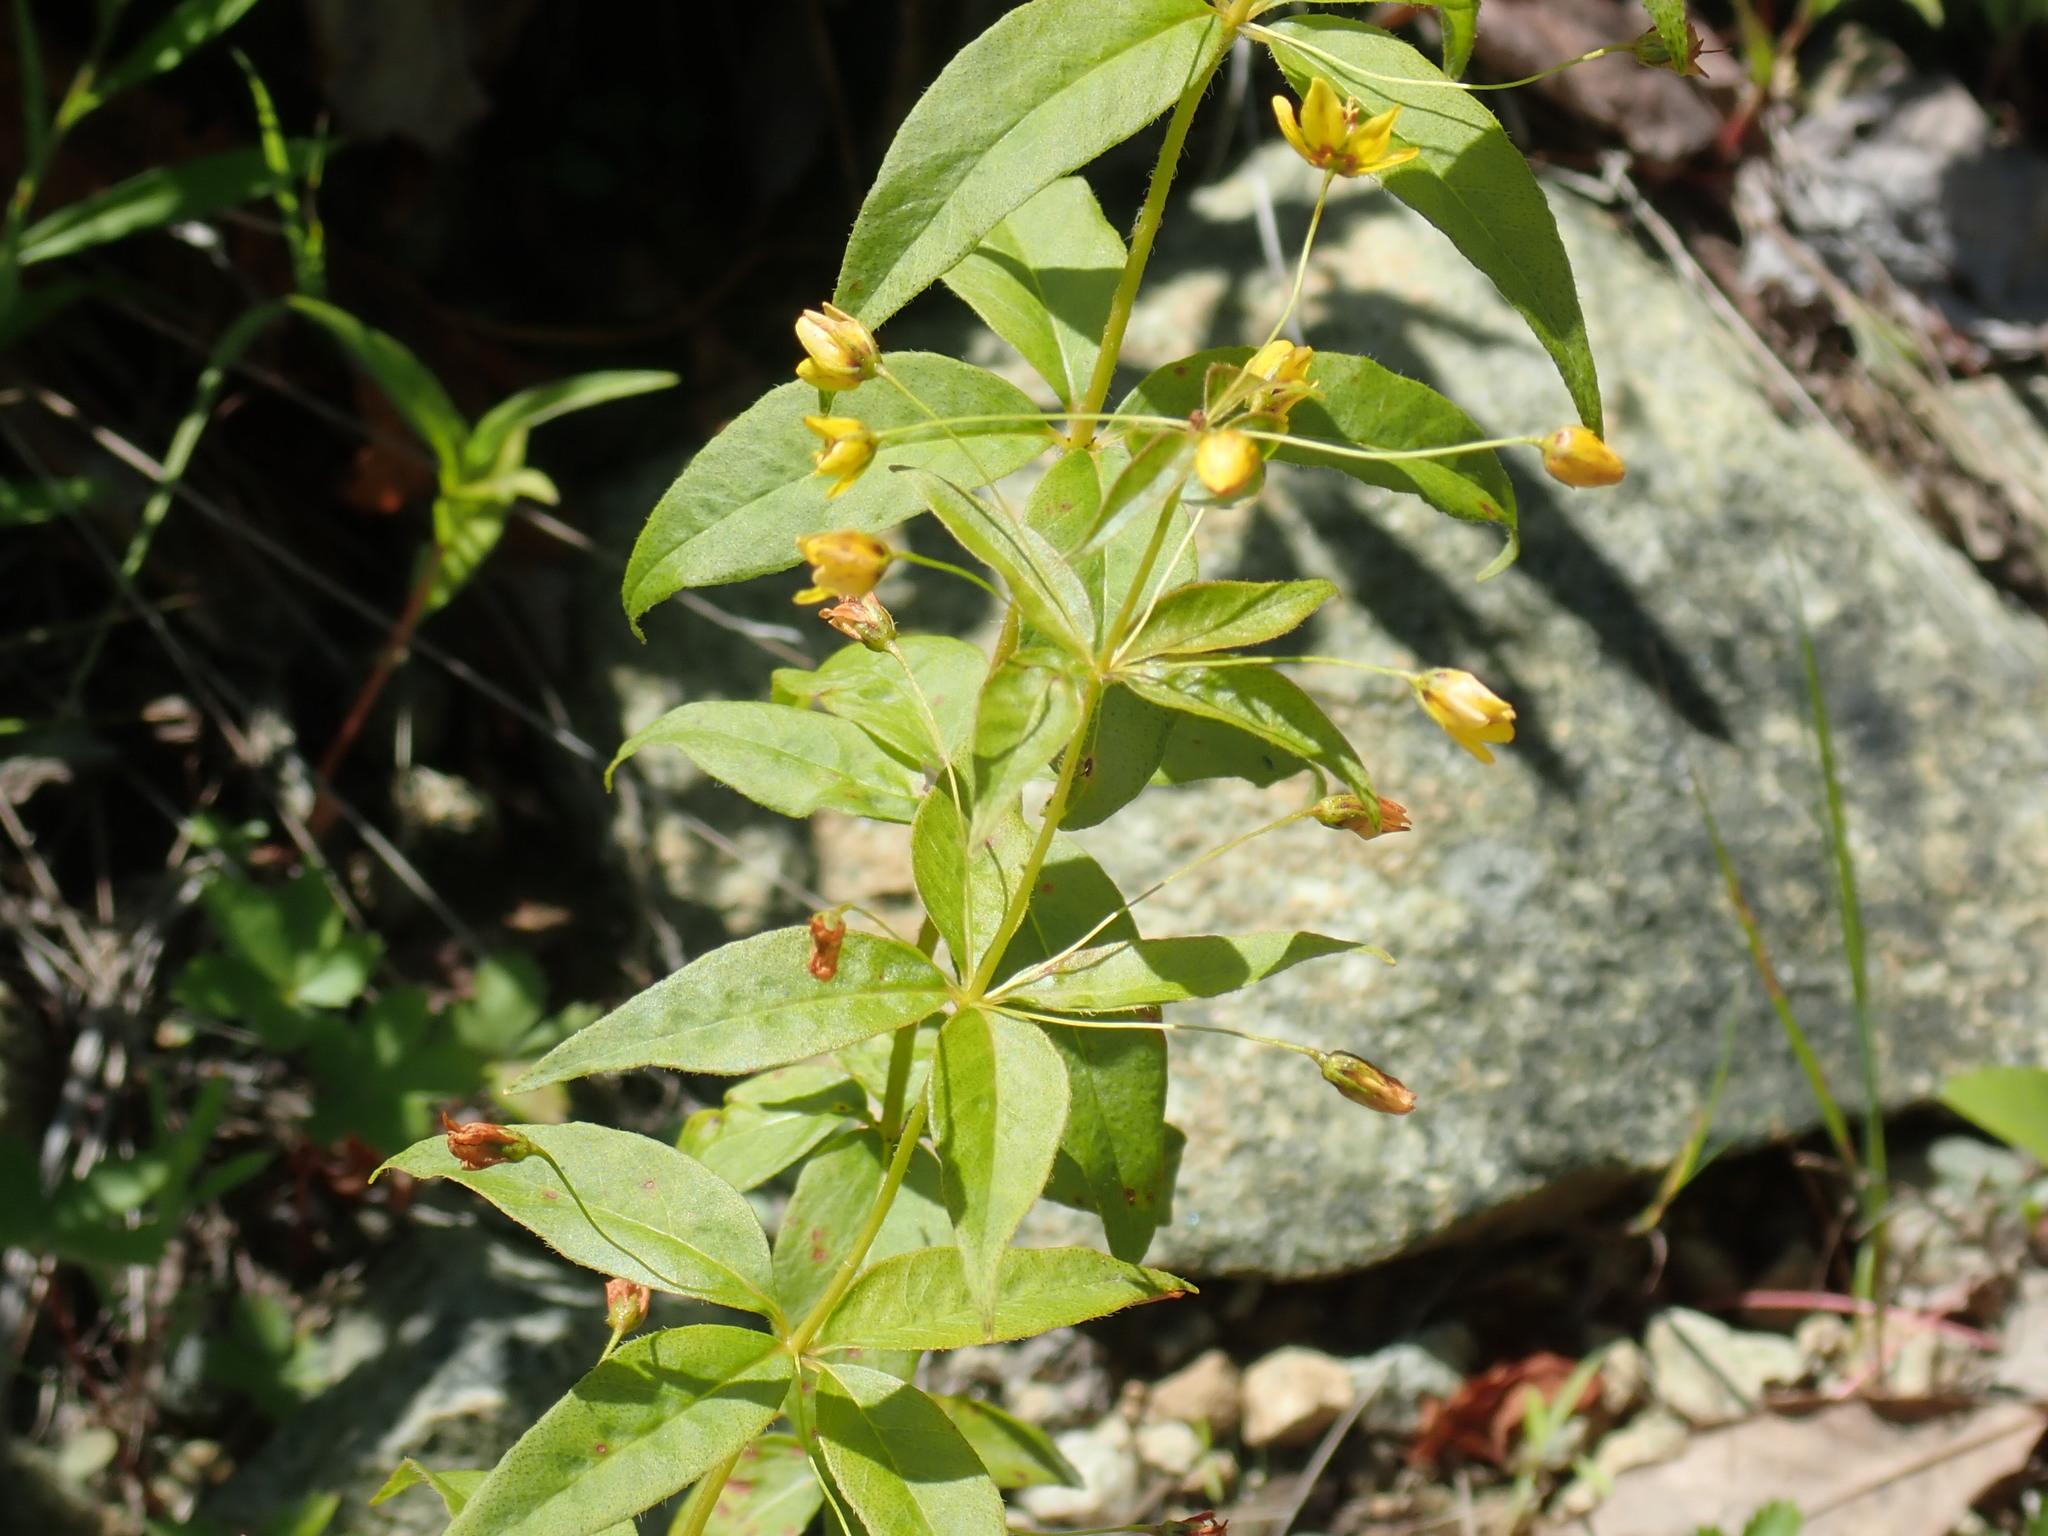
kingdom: Plantae
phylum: Tracheophyta
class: Magnoliopsida
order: Ericales
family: Primulaceae
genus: Lysimachia
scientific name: Lysimachia quadrifolia
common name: Whorled loosestrife
